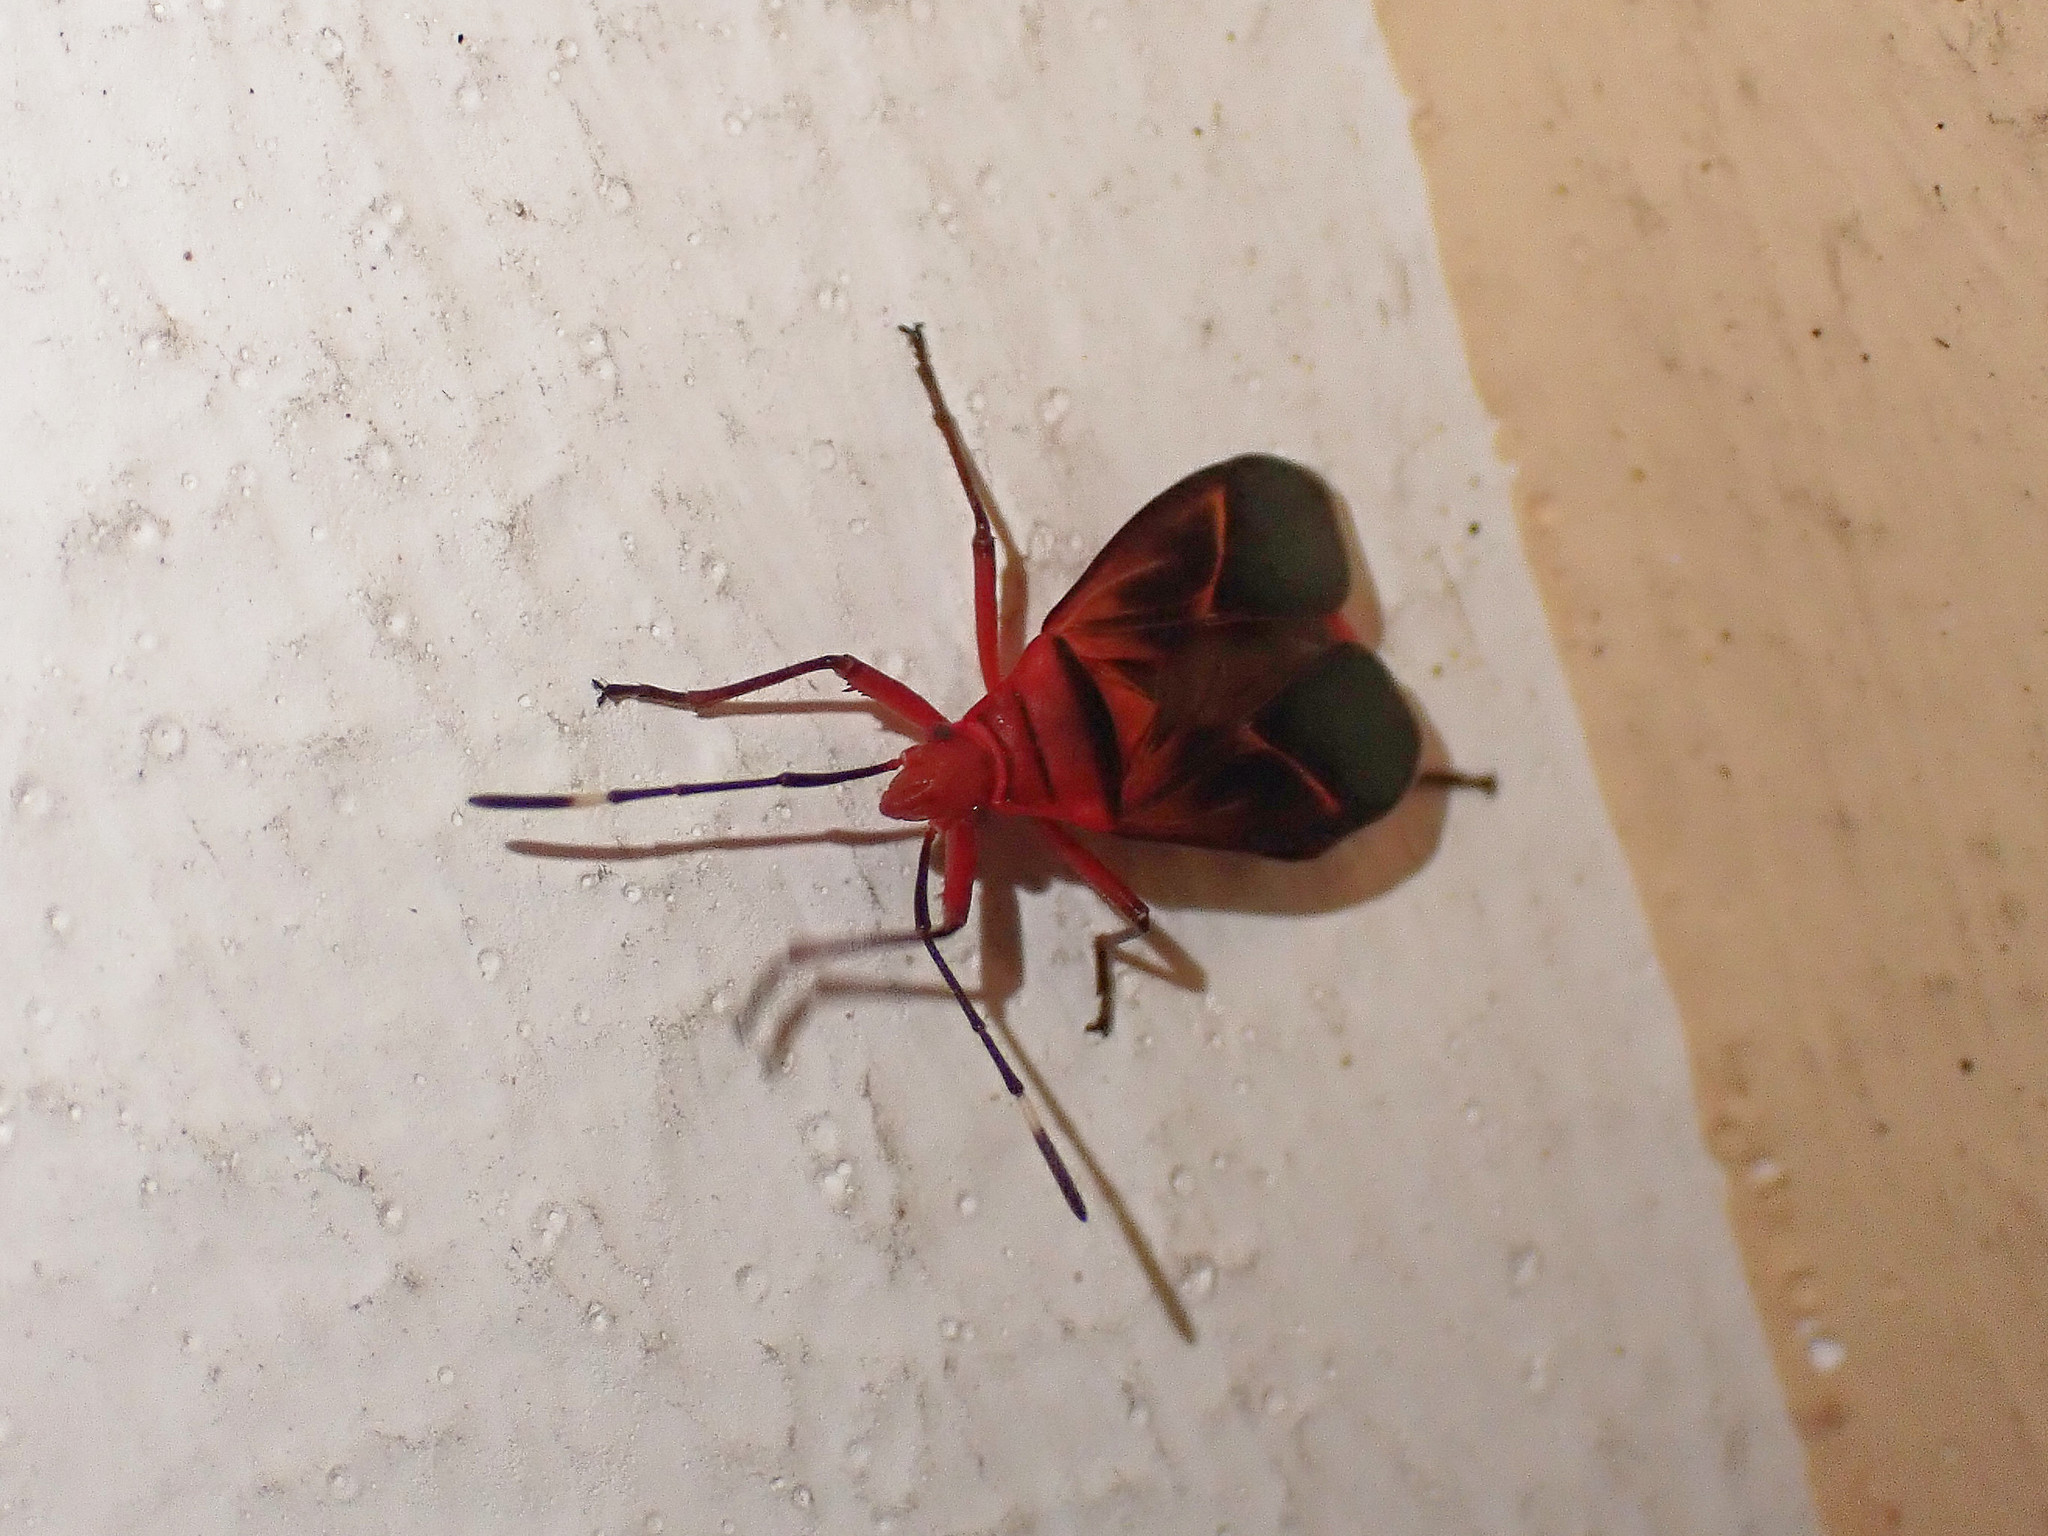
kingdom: Animalia
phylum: Arthropoda
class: Insecta
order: Hemiptera
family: Pyrrhocoridae
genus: Dysdercus
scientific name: Dysdercus fulvoniger
